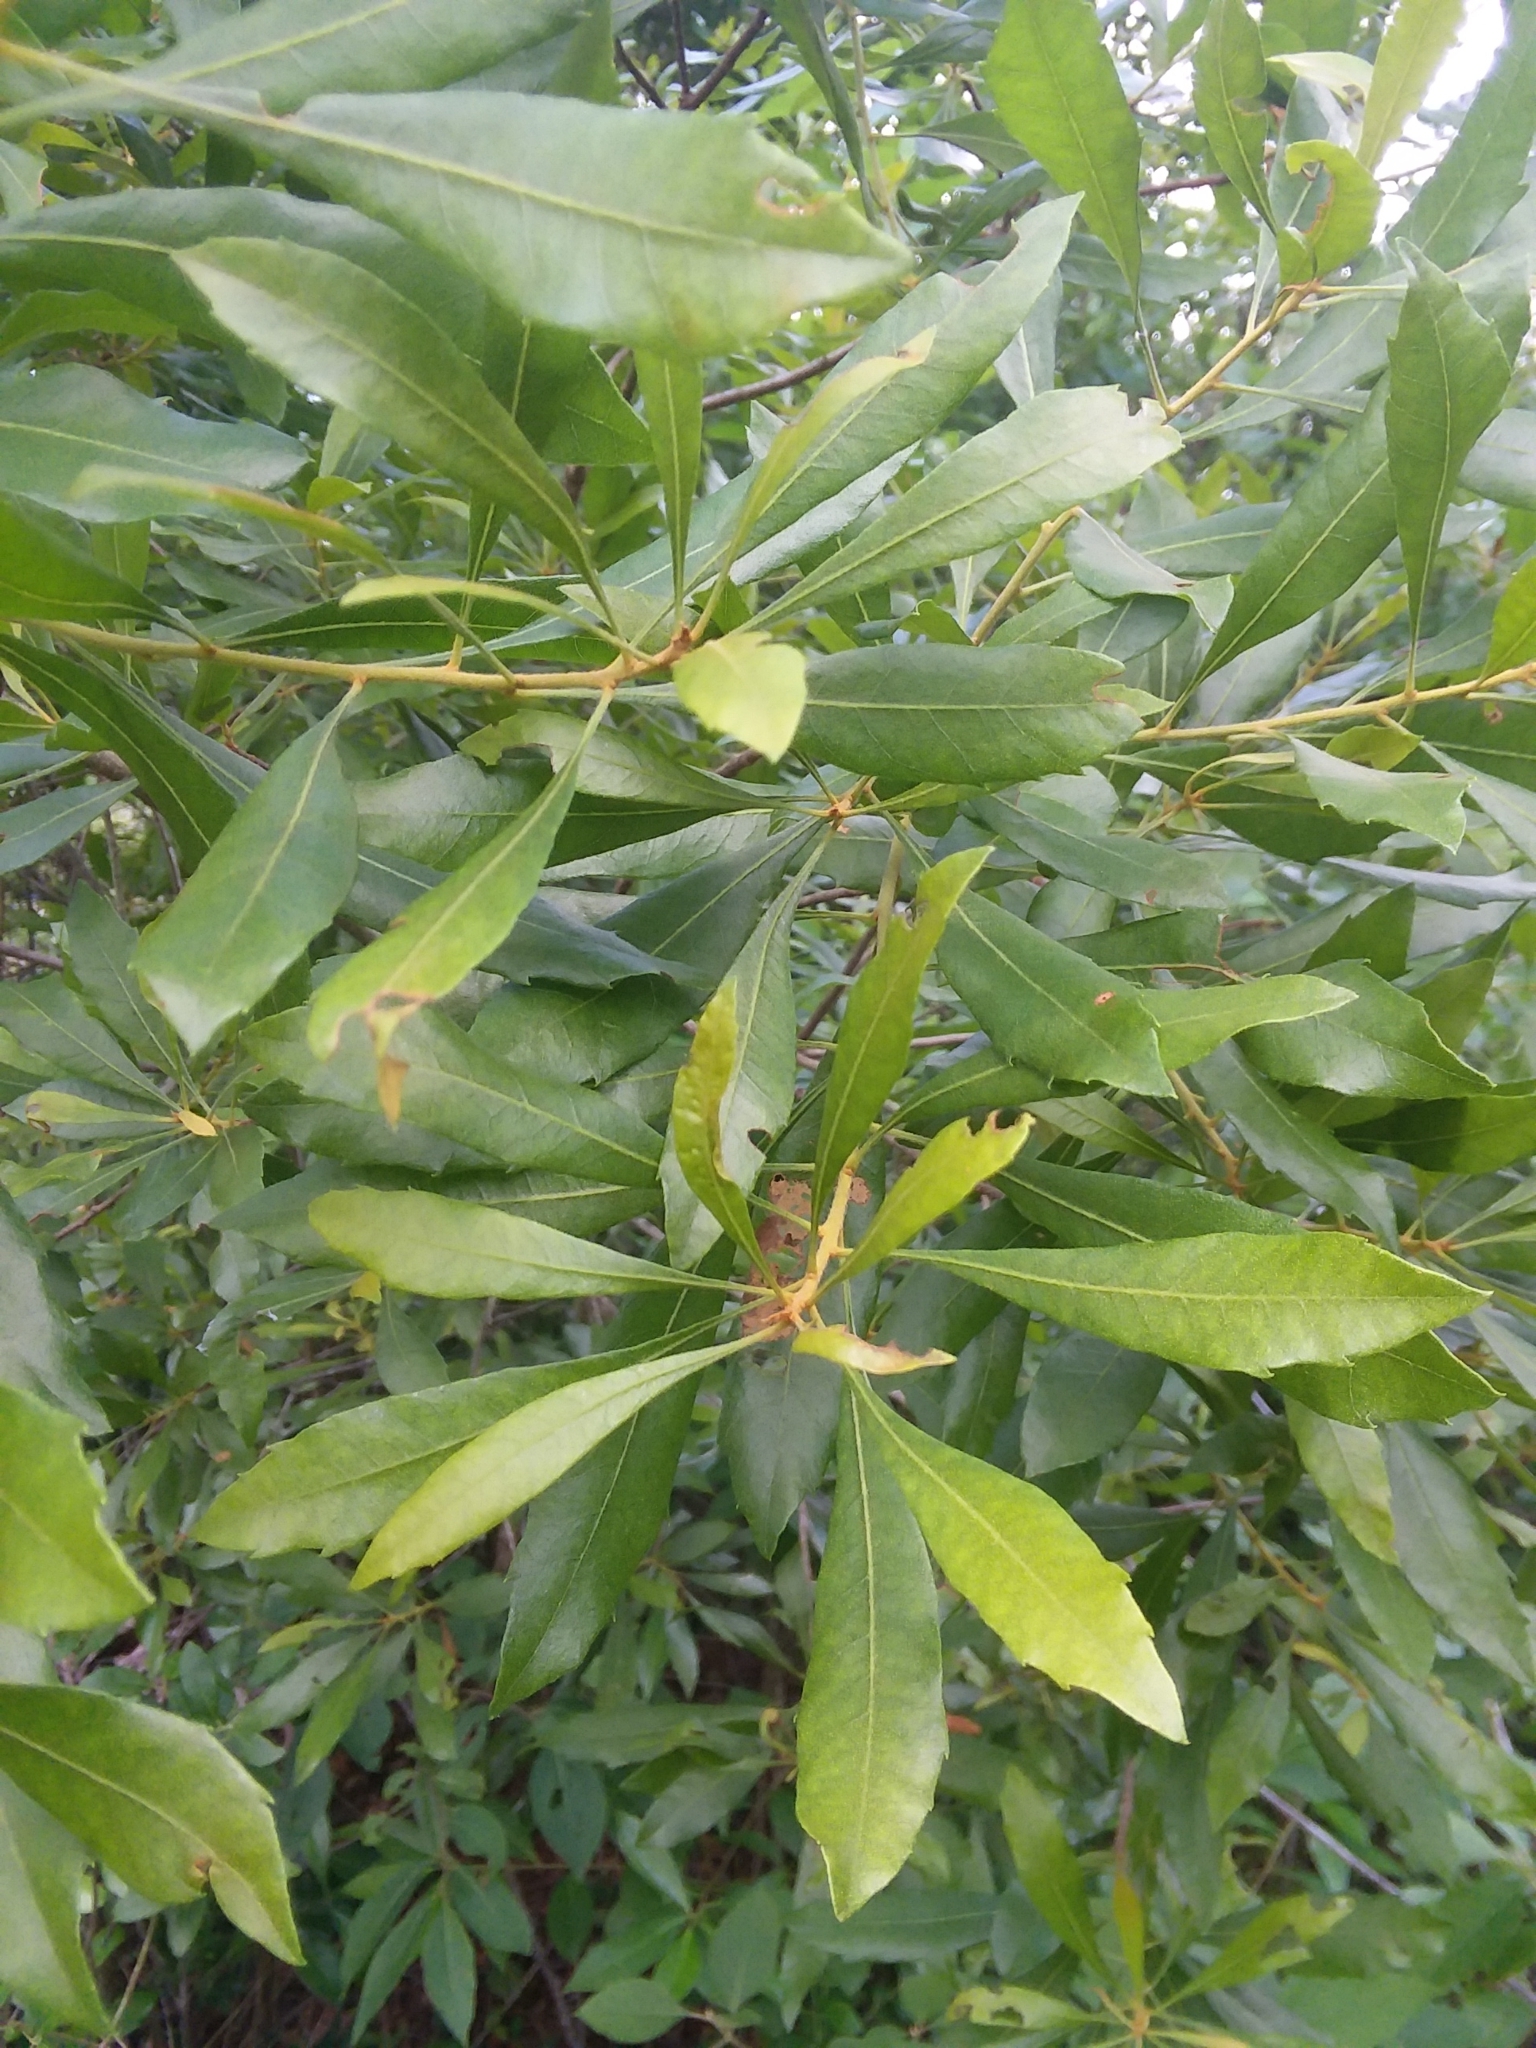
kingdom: Plantae
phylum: Tracheophyta
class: Magnoliopsida
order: Fagales
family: Myricaceae
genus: Morella
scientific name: Morella cerifera
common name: Wax myrtle
